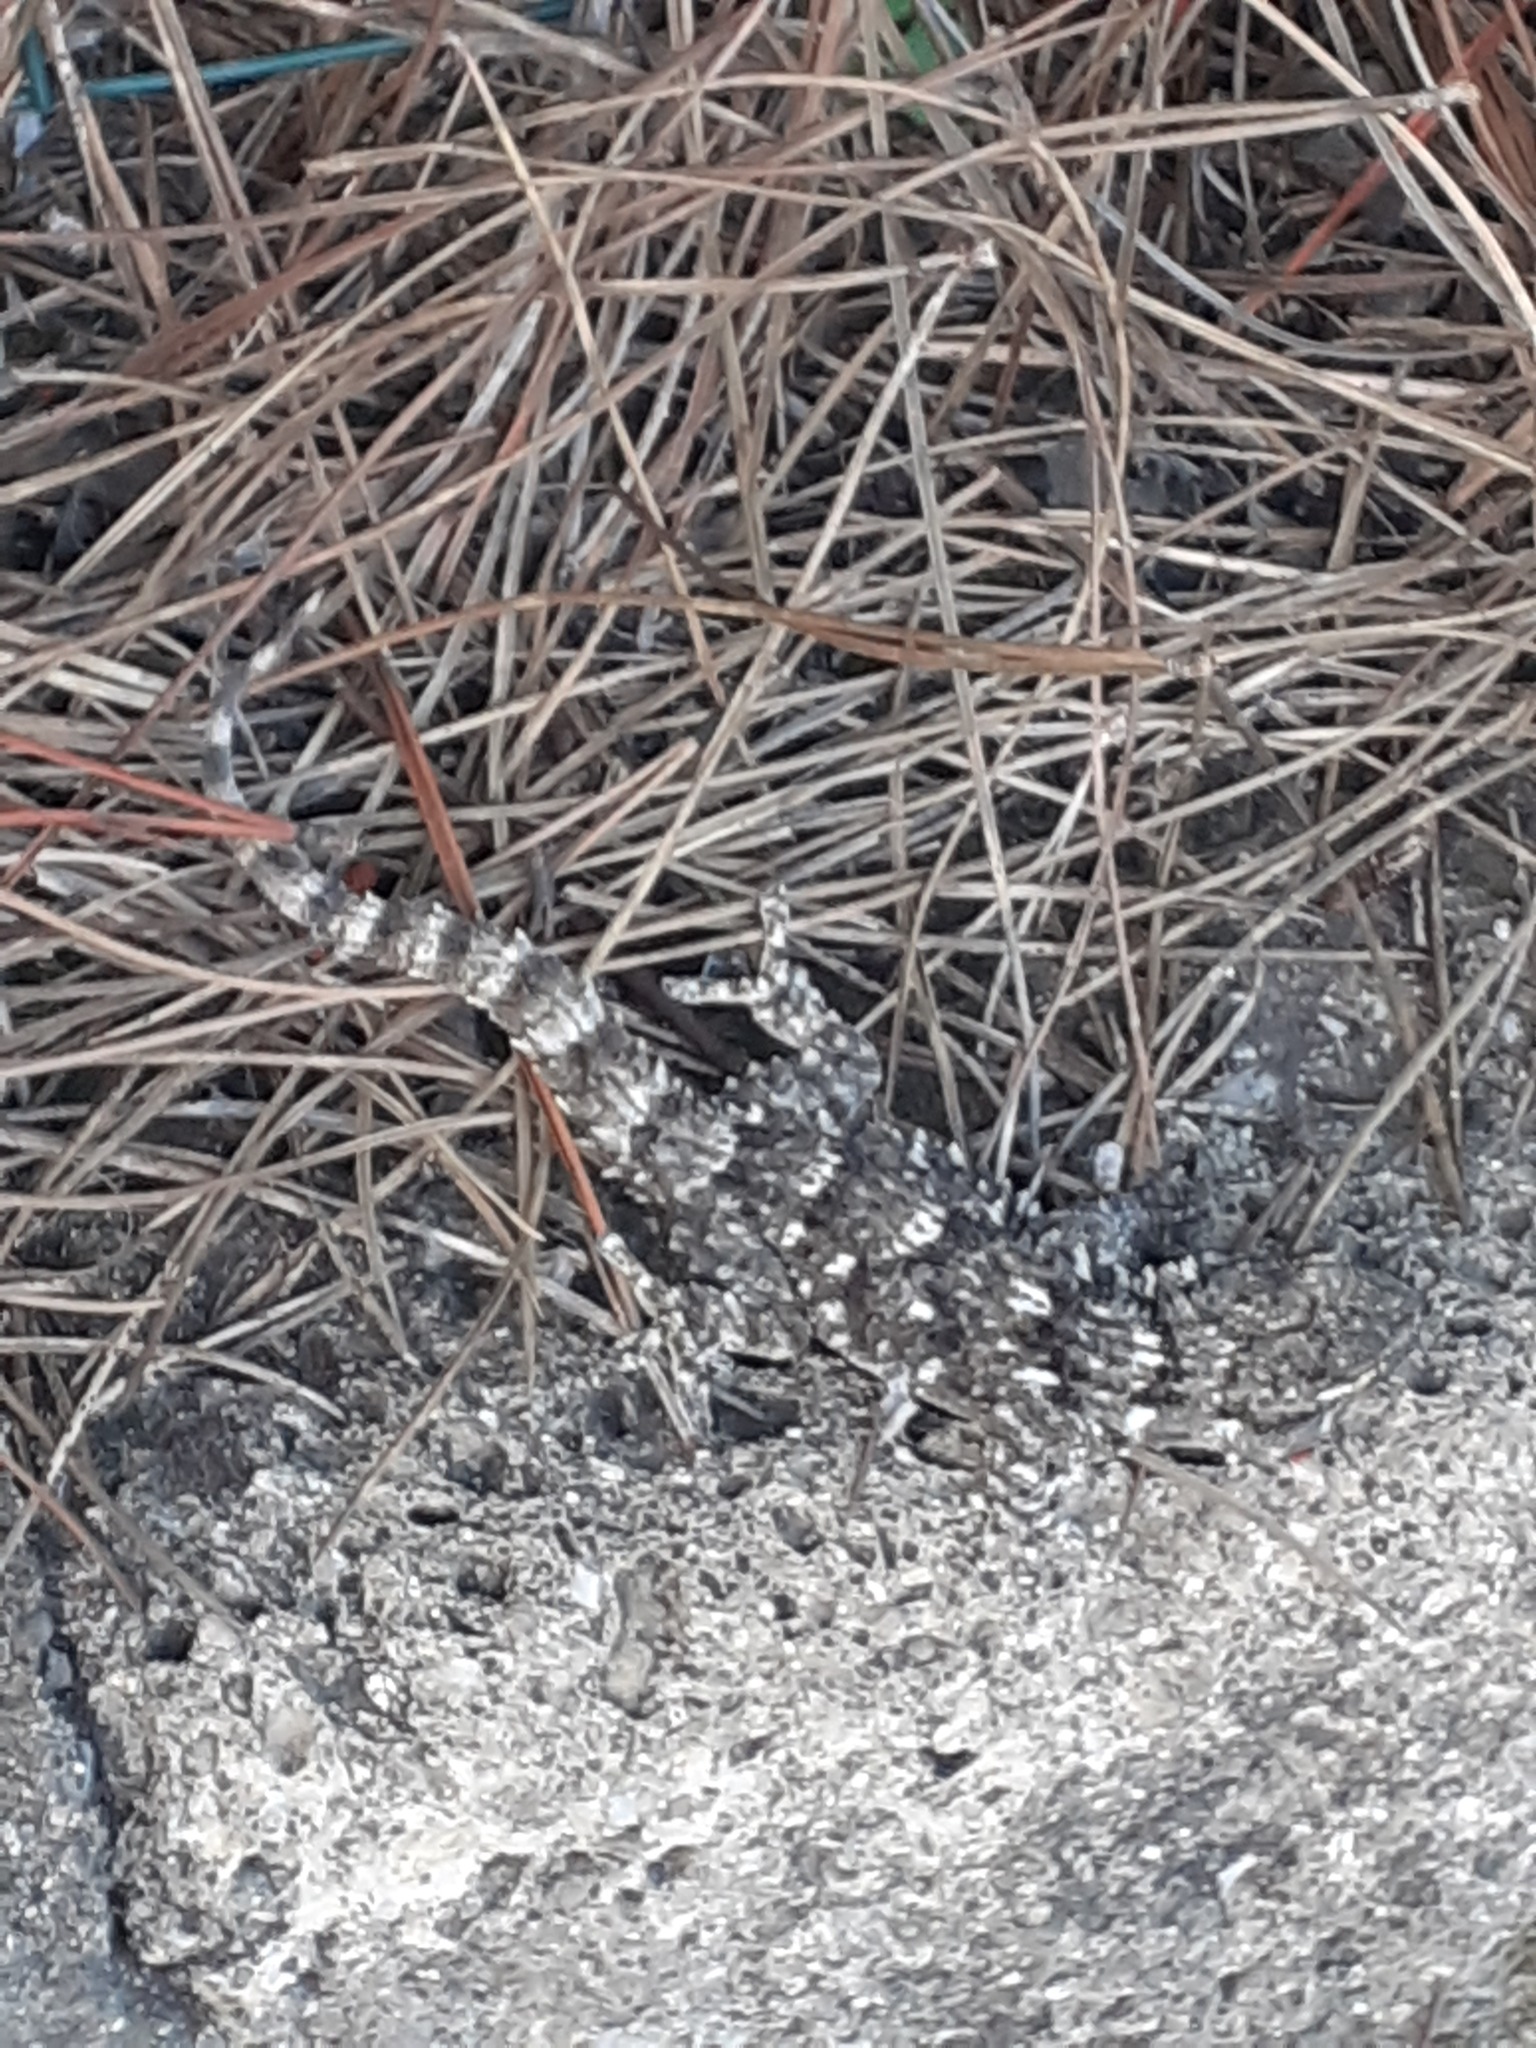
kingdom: Animalia
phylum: Chordata
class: Squamata
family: Phyllodactylidae
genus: Tarentola
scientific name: Tarentola mauritanica
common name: Moorish gecko
